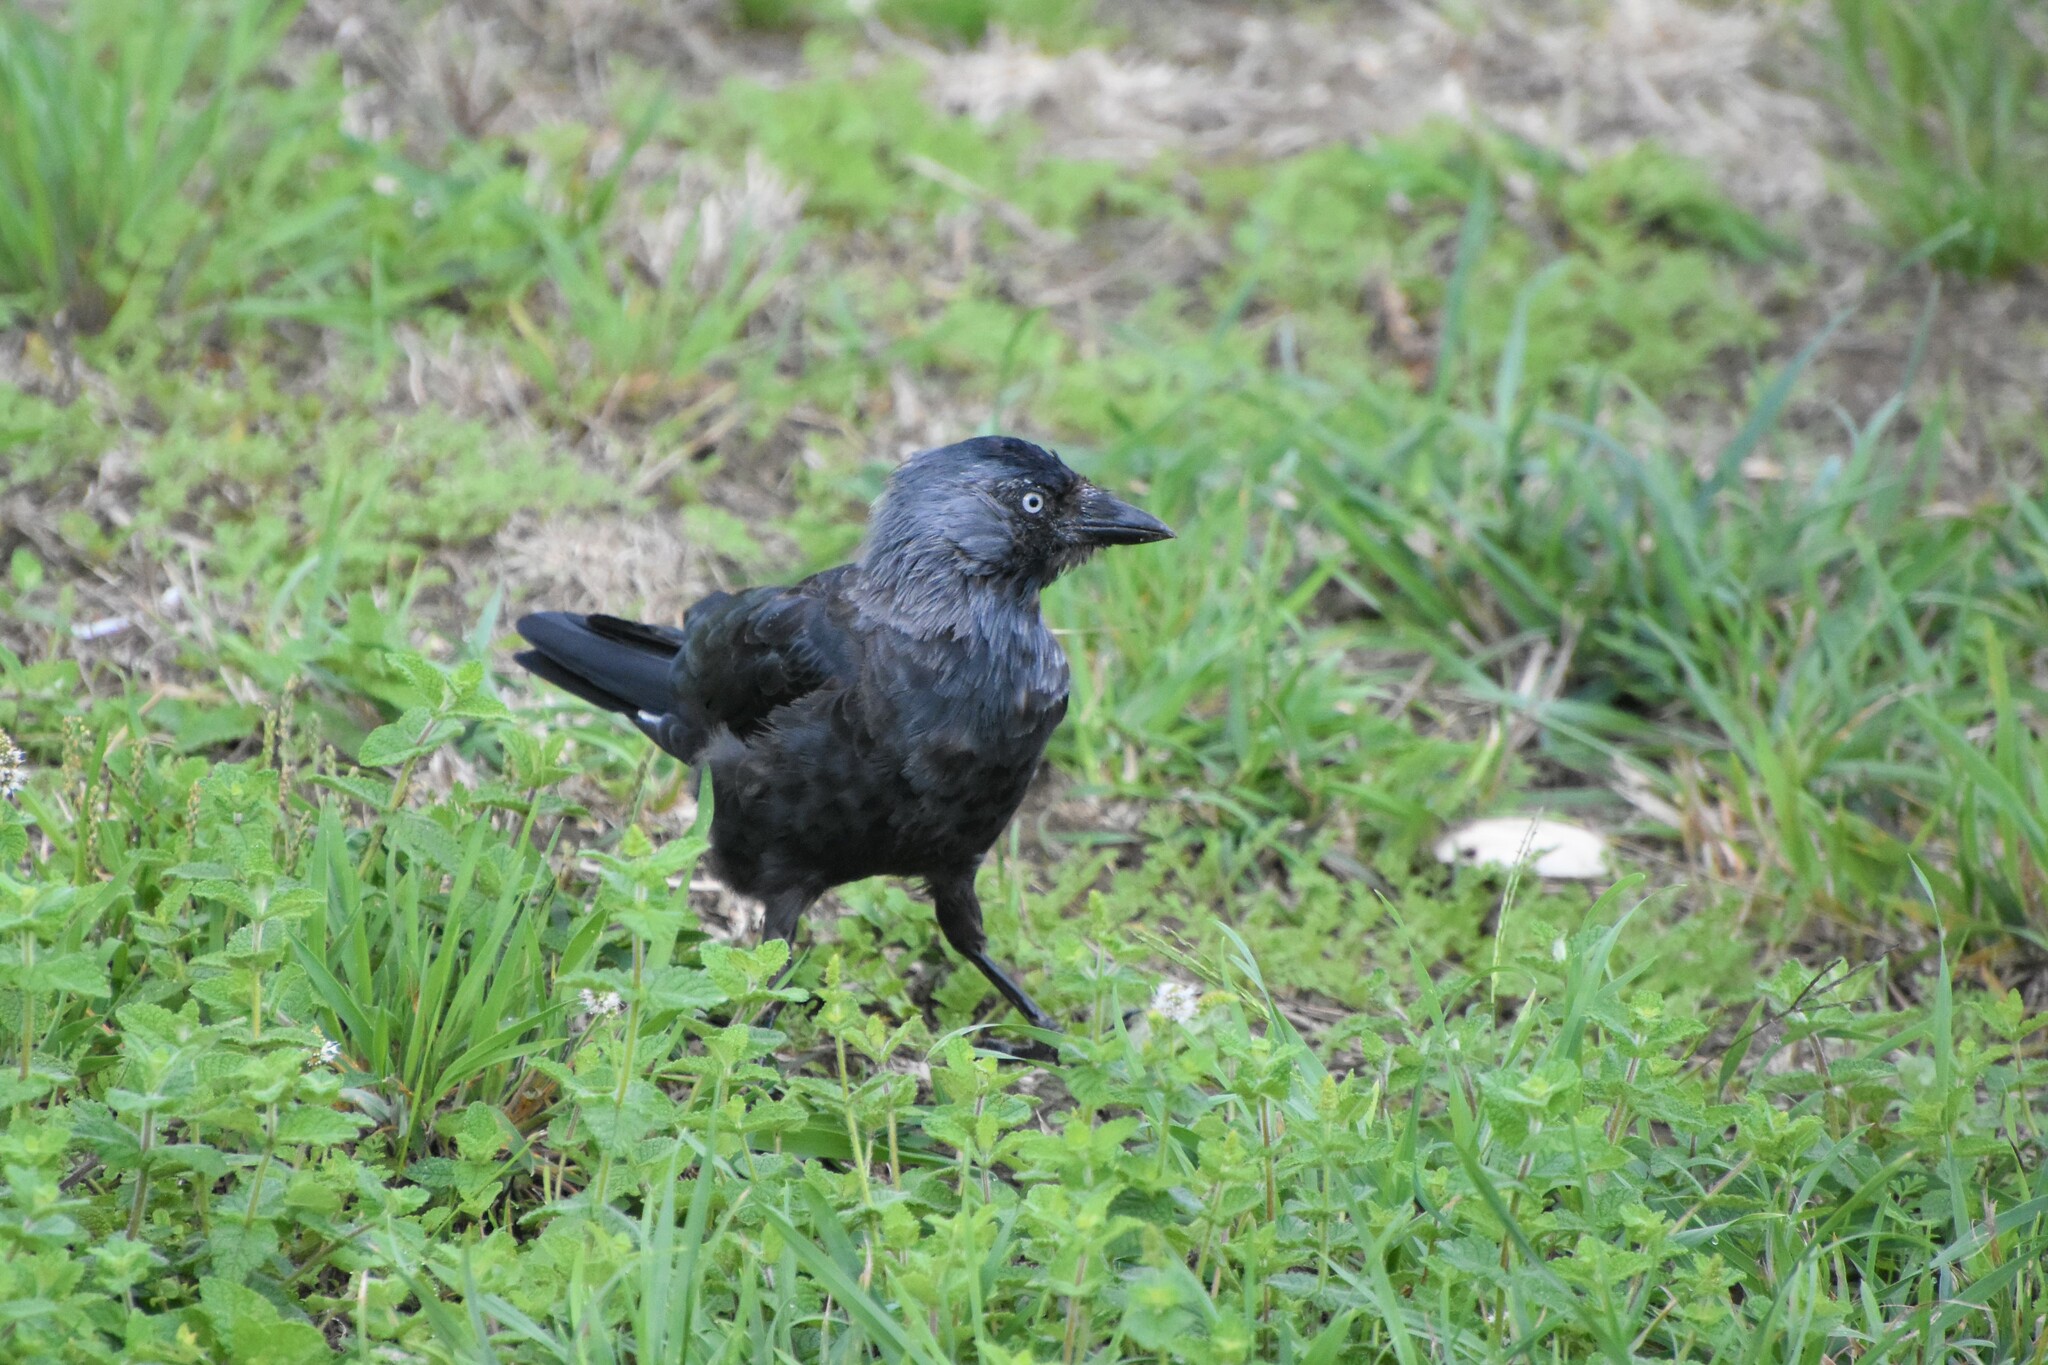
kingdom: Animalia
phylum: Chordata
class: Aves
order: Passeriformes
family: Corvidae
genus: Coloeus
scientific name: Coloeus monedula
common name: Western jackdaw
